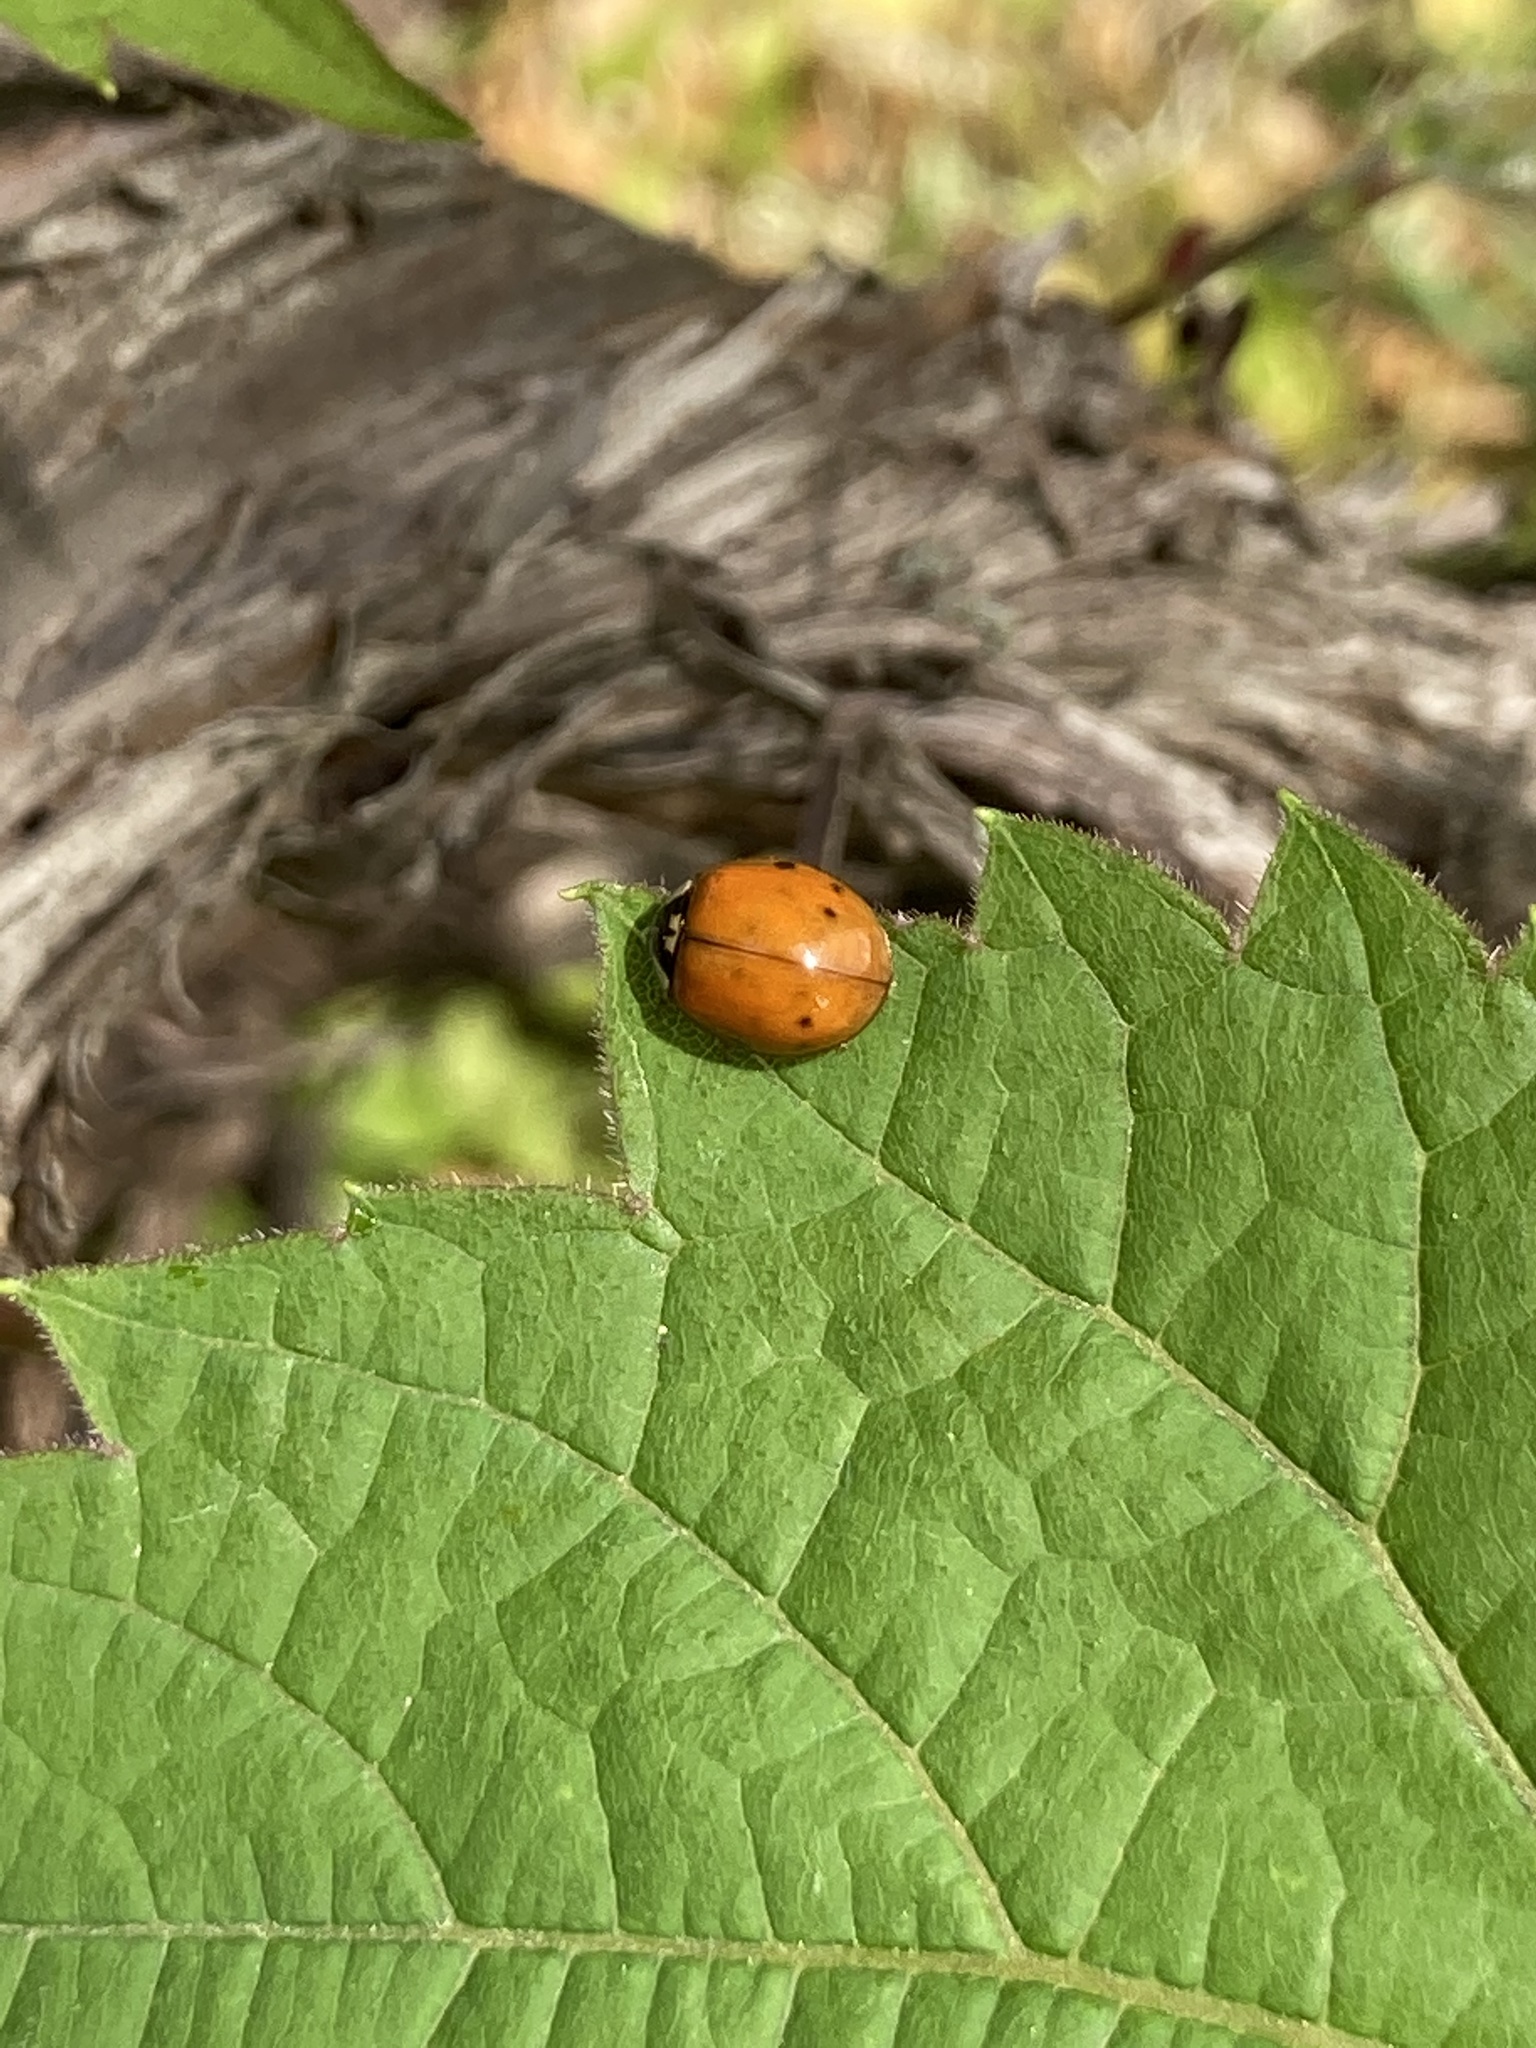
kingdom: Animalia
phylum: Arthropoda
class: Insecta
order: Coleoptera
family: Coccinellidae
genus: Harmonia
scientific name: Harmonia axyridis
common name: Harlequin ladybird
